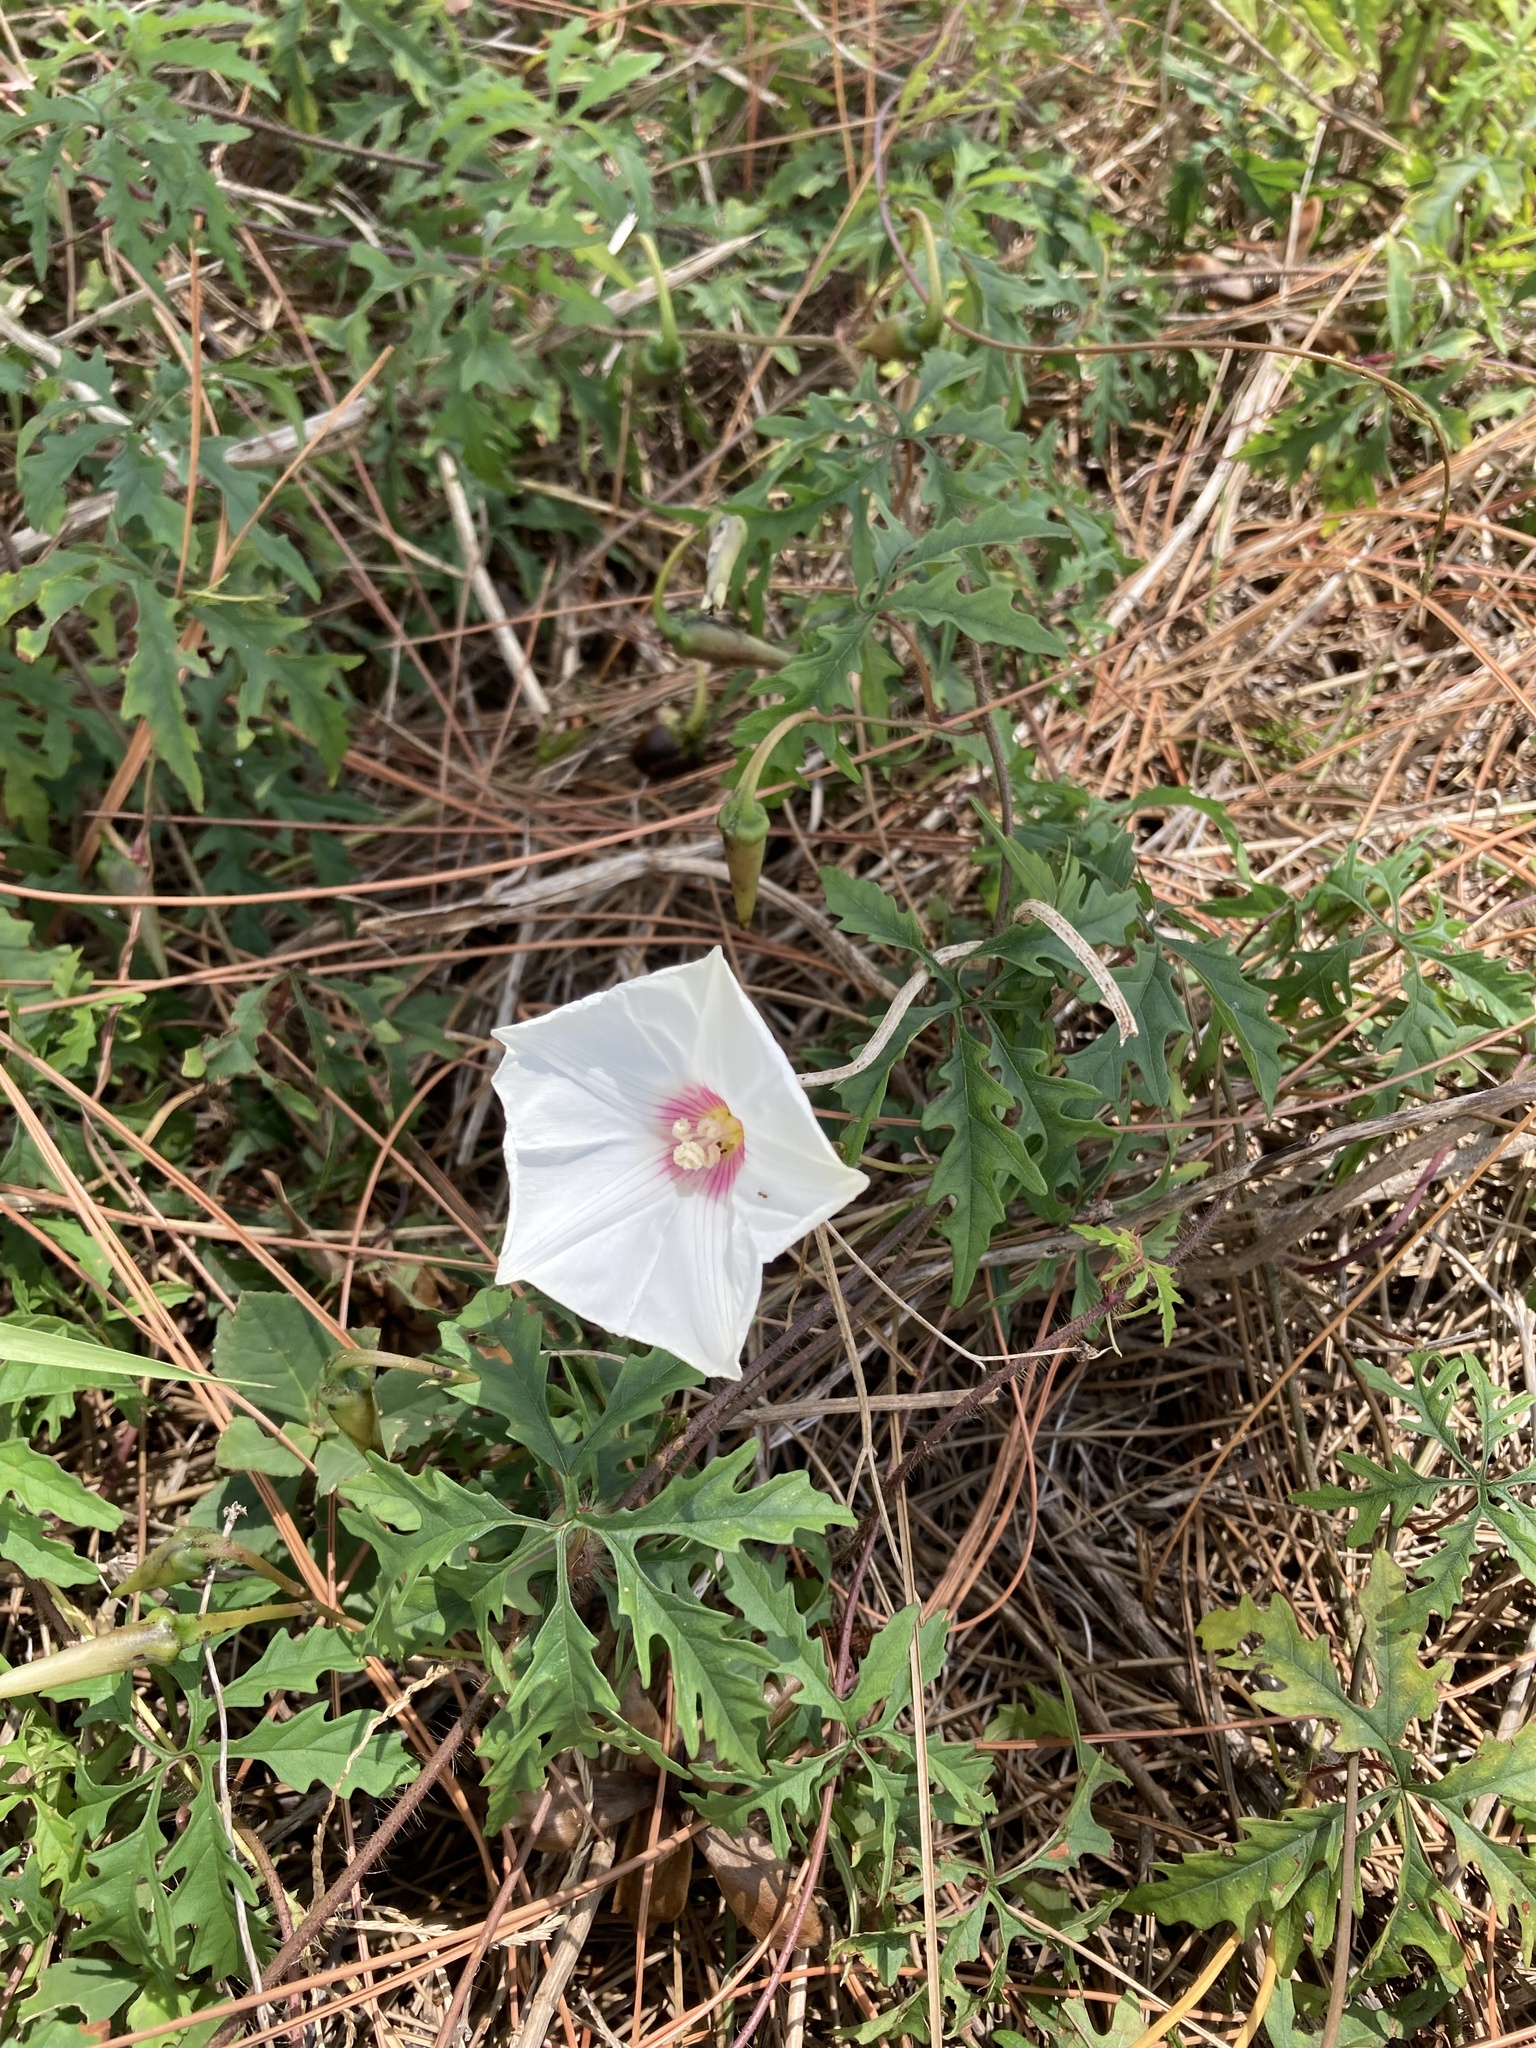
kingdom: Plantae
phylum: Tracheophyta
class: Magnoliopsida
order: Solanales
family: Convolvulaceae
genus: Distimake
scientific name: Distimake dissectus
